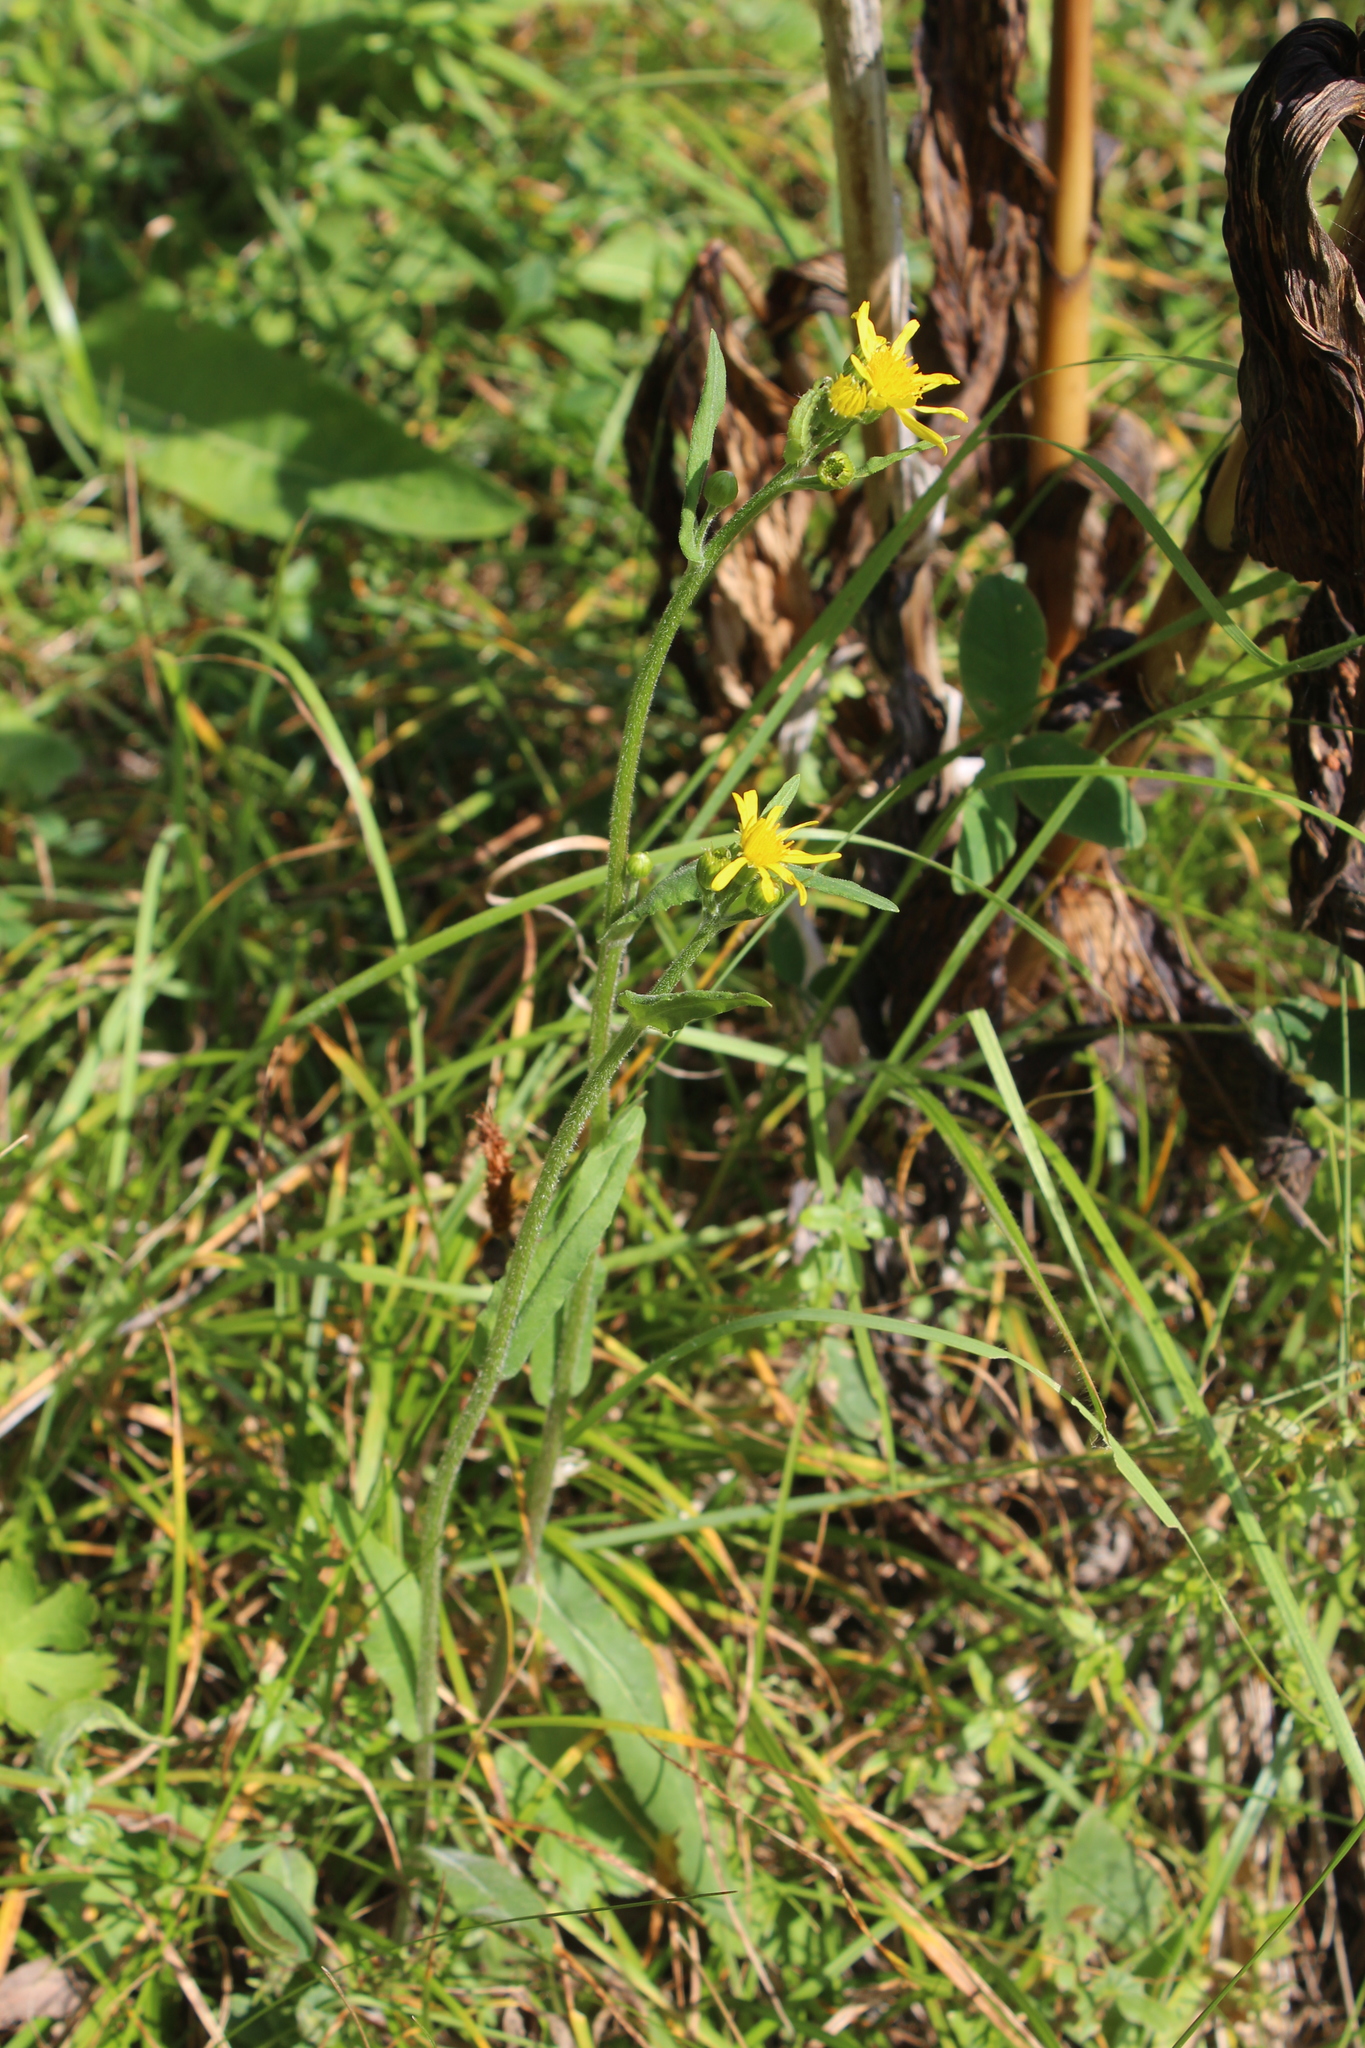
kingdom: Plantae
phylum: Tracheophyta
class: Magnoliopsida
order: Asterales
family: Asteraceae
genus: Tephroseris
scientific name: Tephroseris cladobotrys
